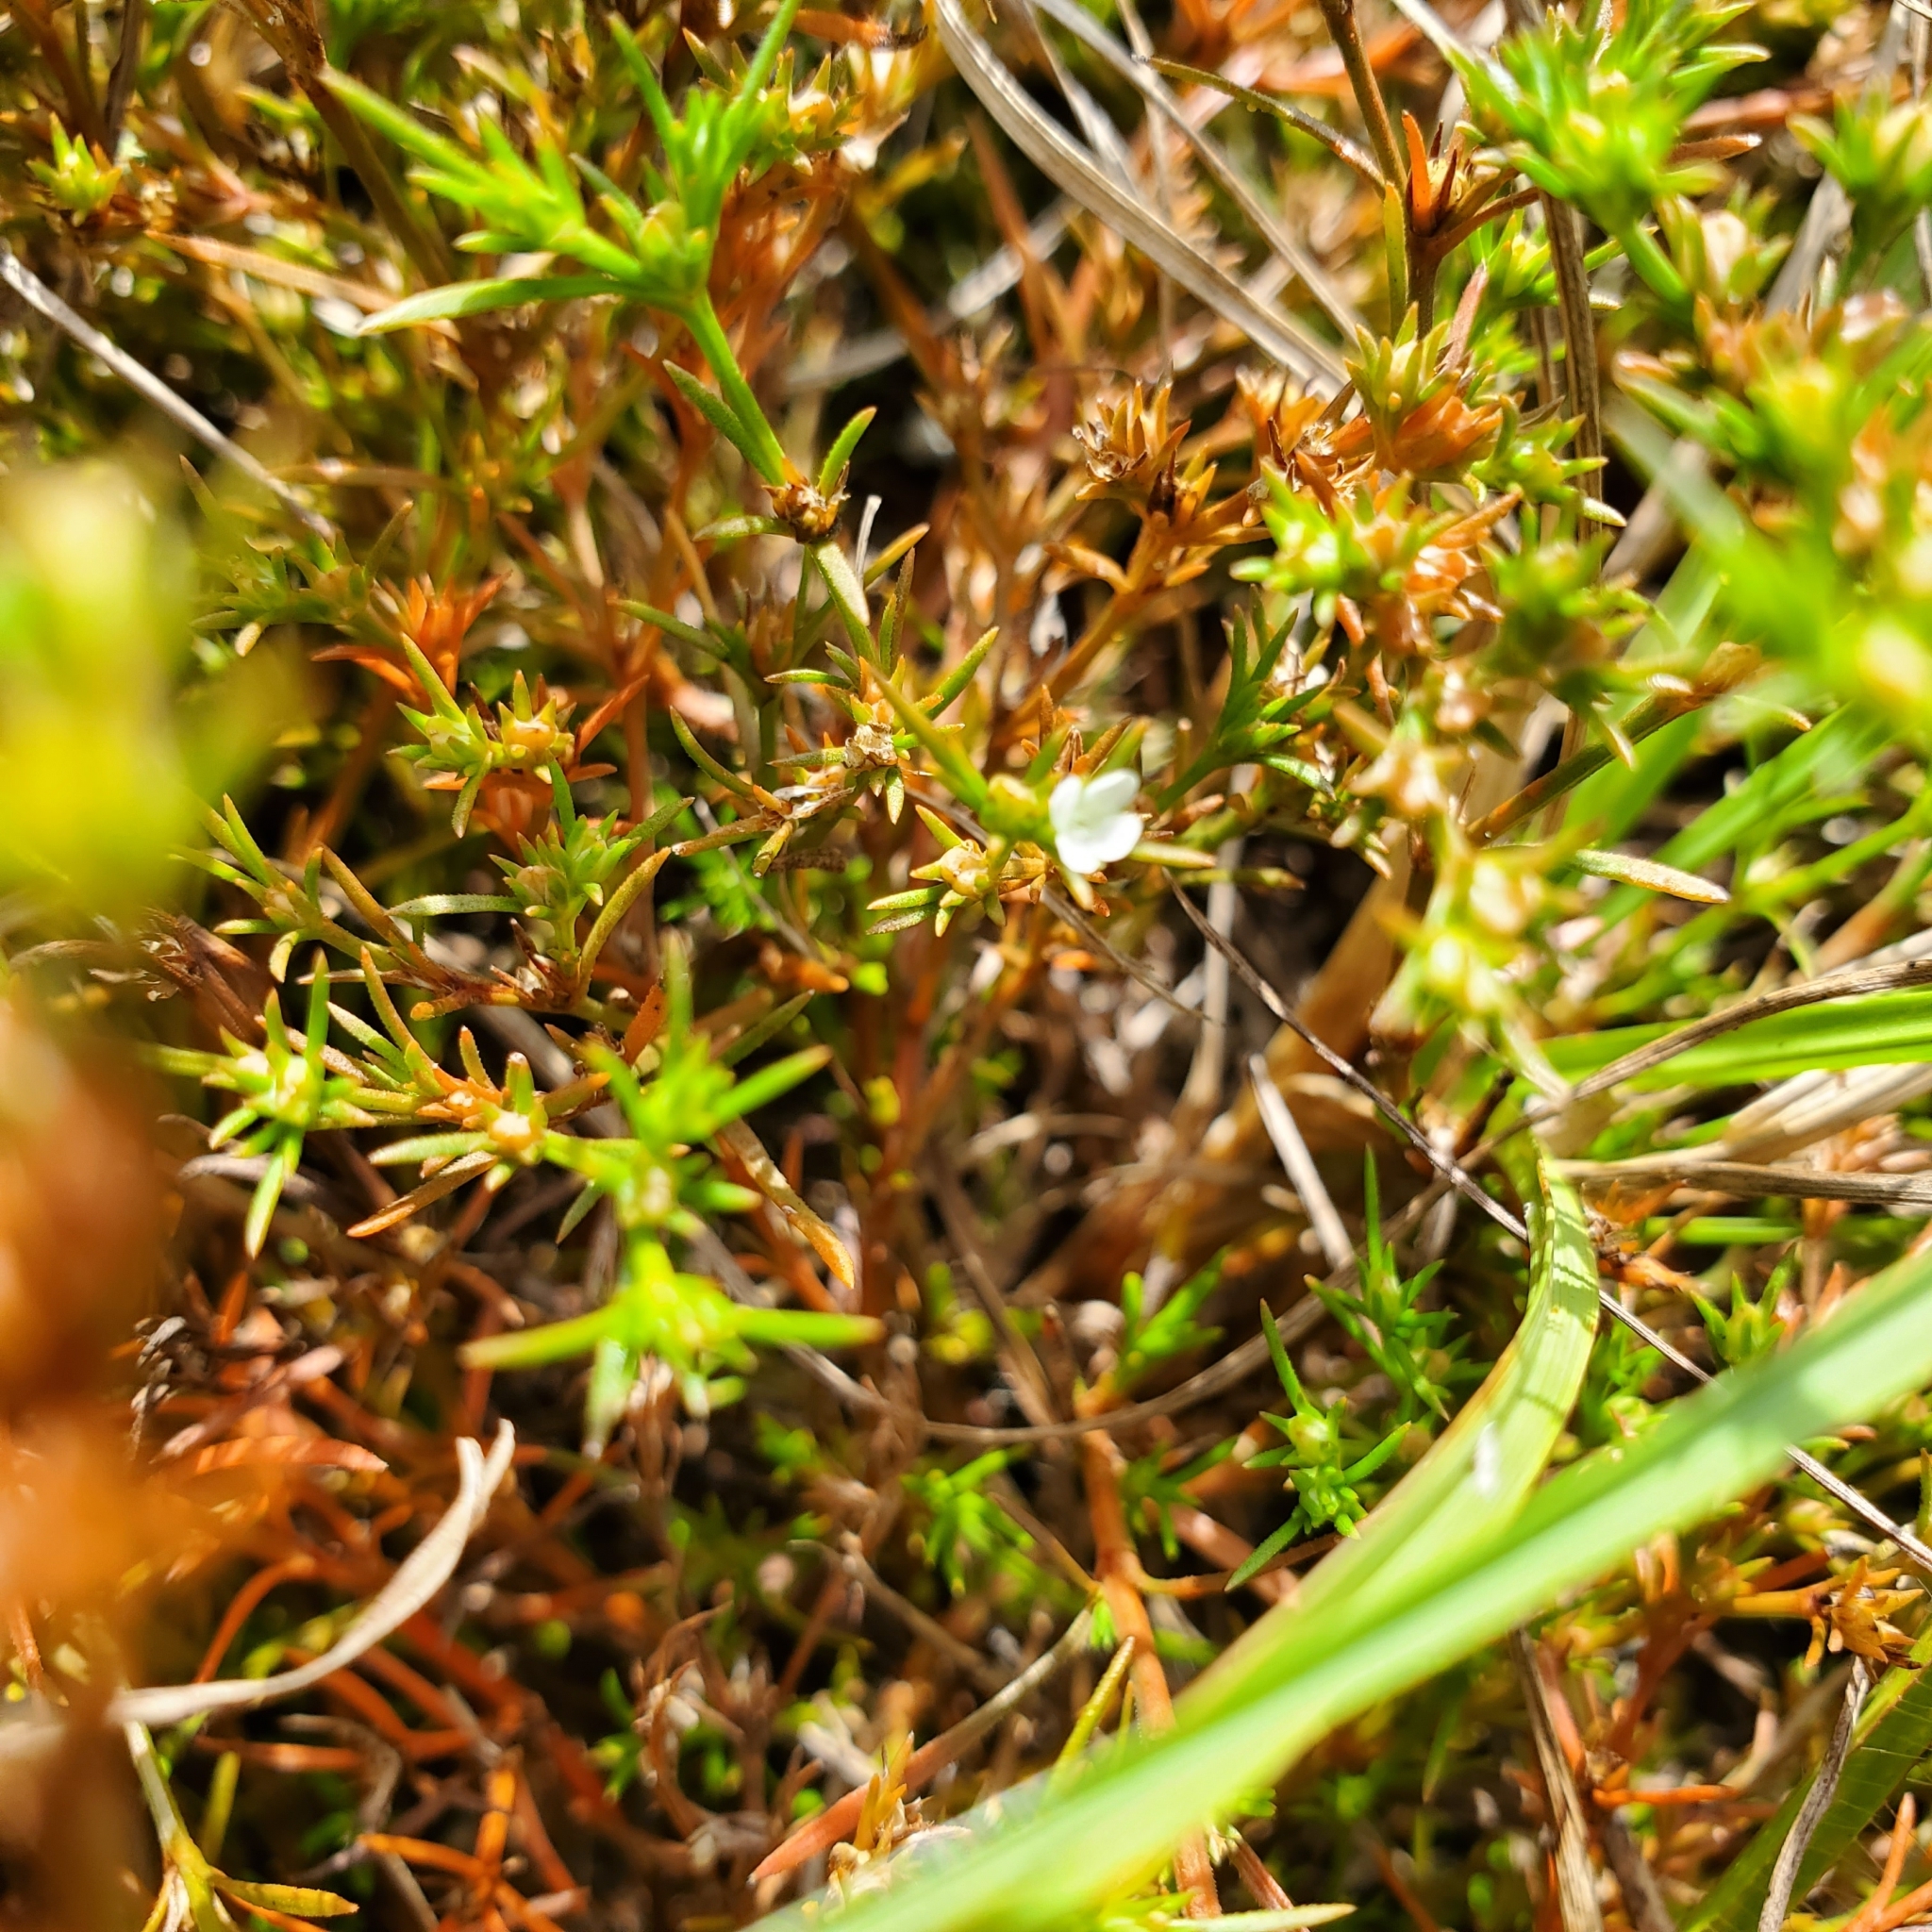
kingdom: Plantae
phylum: Tracheophyta
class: Magnoliopsida
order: Lamiales
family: Tetrachondraceae
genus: Polypremum
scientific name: Polypremum procumbens
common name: Juniper-leaf
